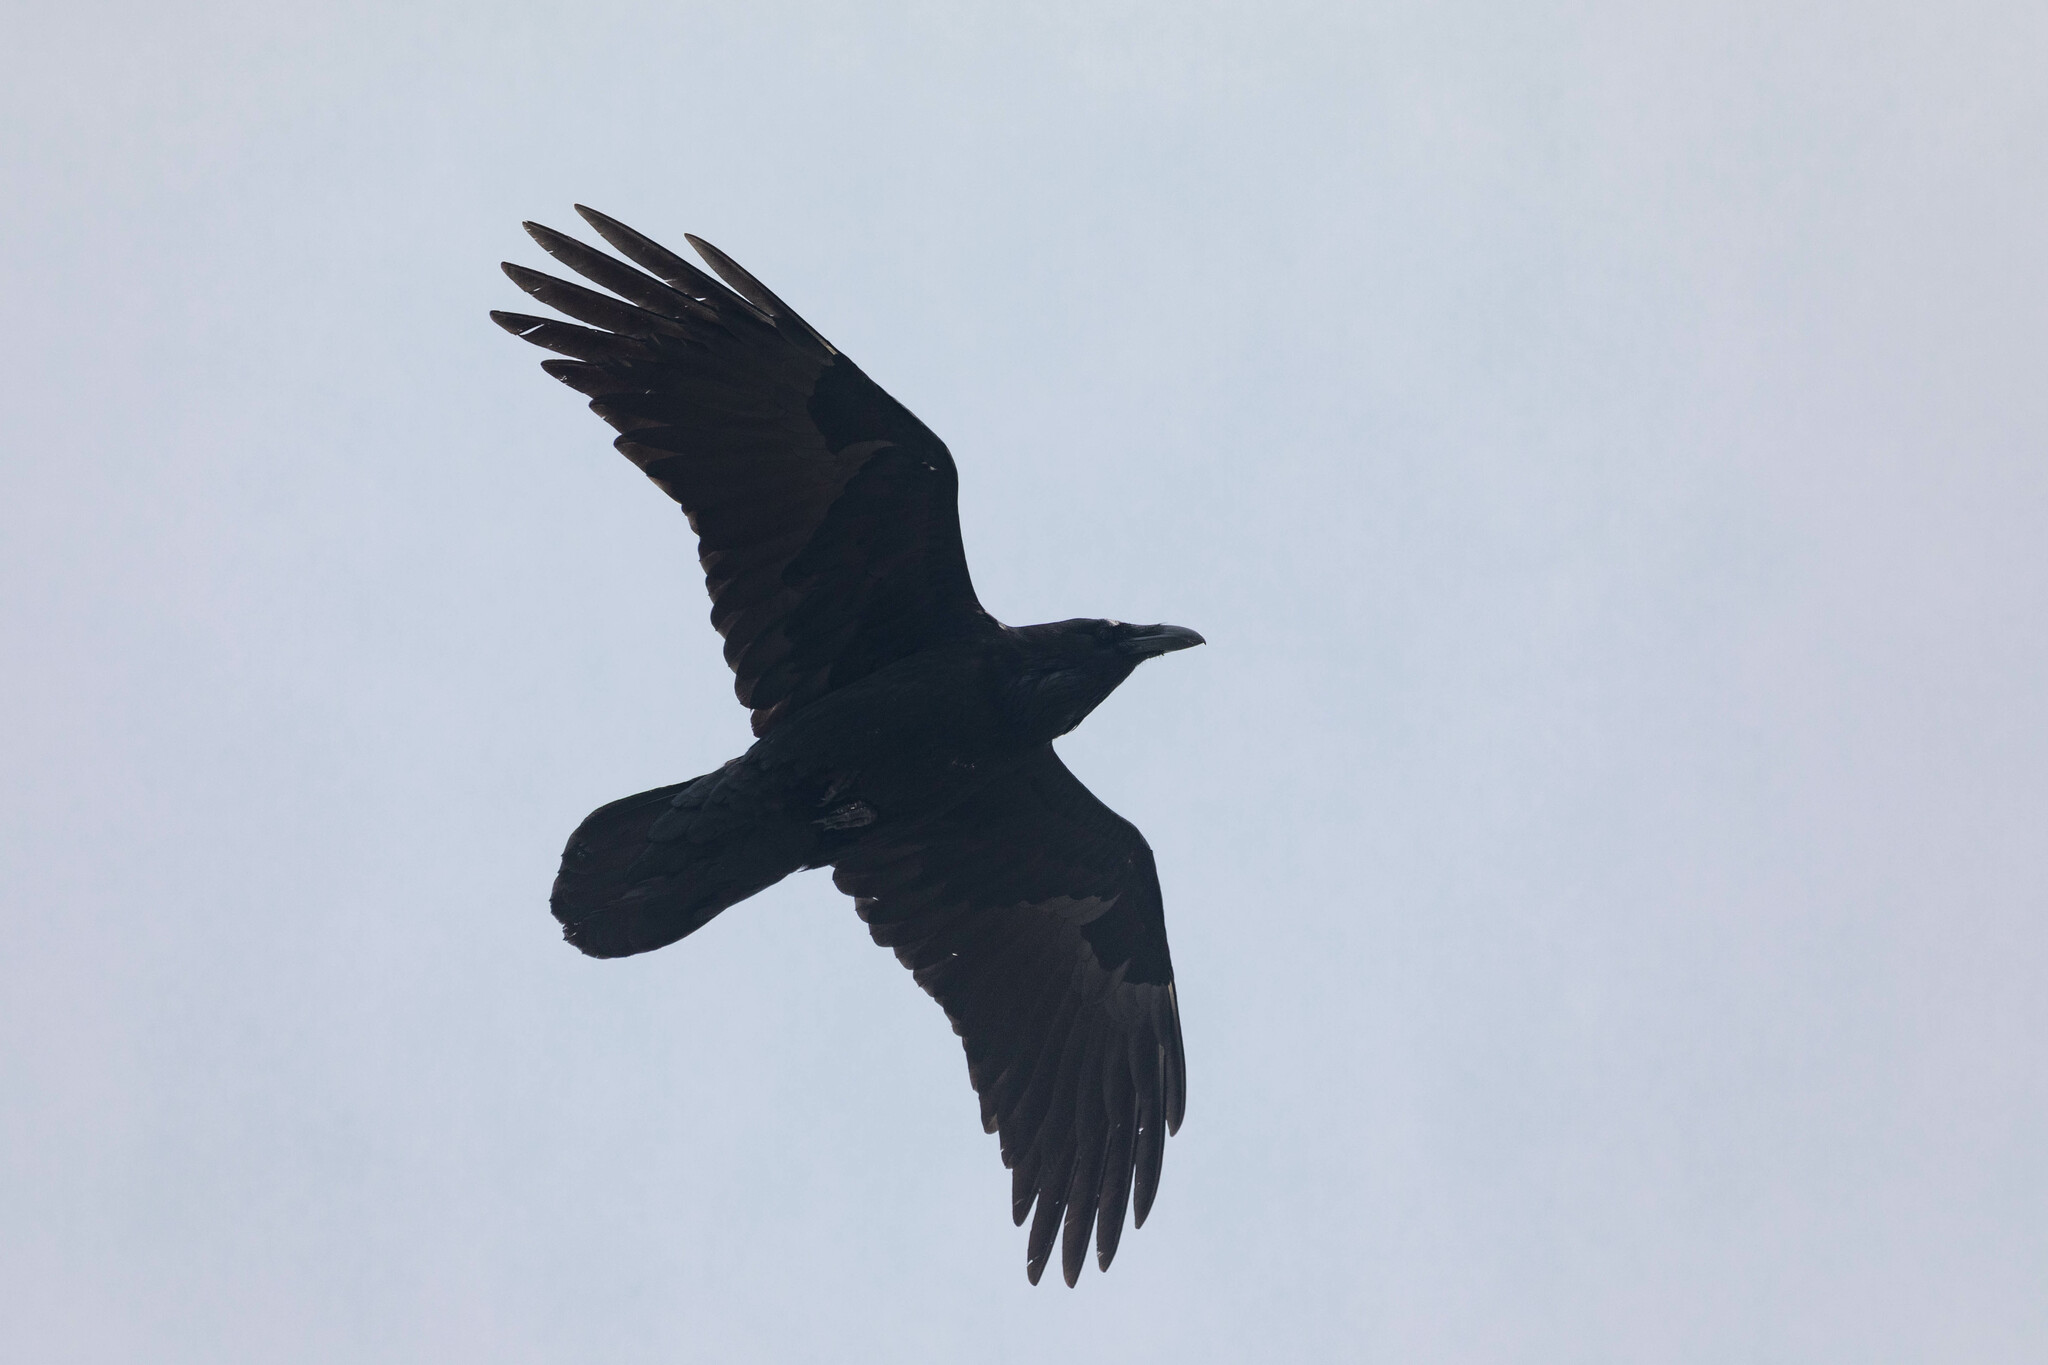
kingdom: Animalia
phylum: Chordata
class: Aves
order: Passeriformes
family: Corvidae
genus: Corvus
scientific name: Corvus corax
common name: Common raven
